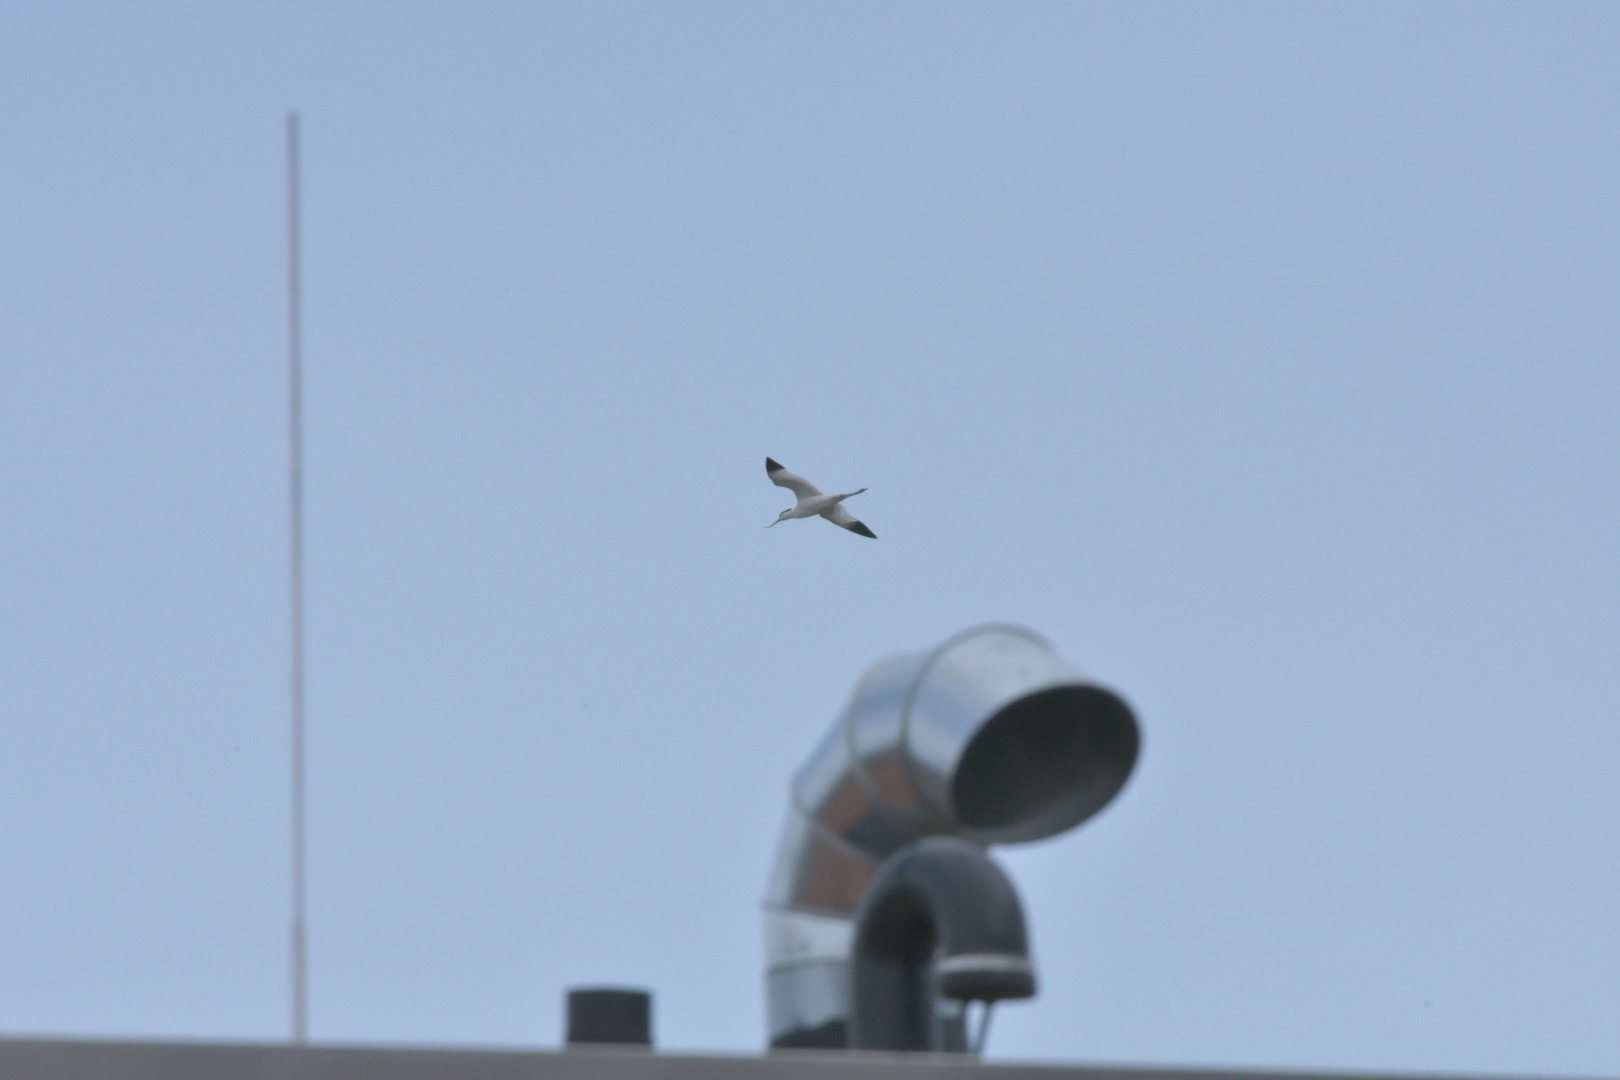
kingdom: Animalia
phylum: Chordata
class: Aves
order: Charadriiformes
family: Recurvirostridae
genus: Recurvirostra
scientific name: Recurvirostra avosetta
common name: Pied avocet
